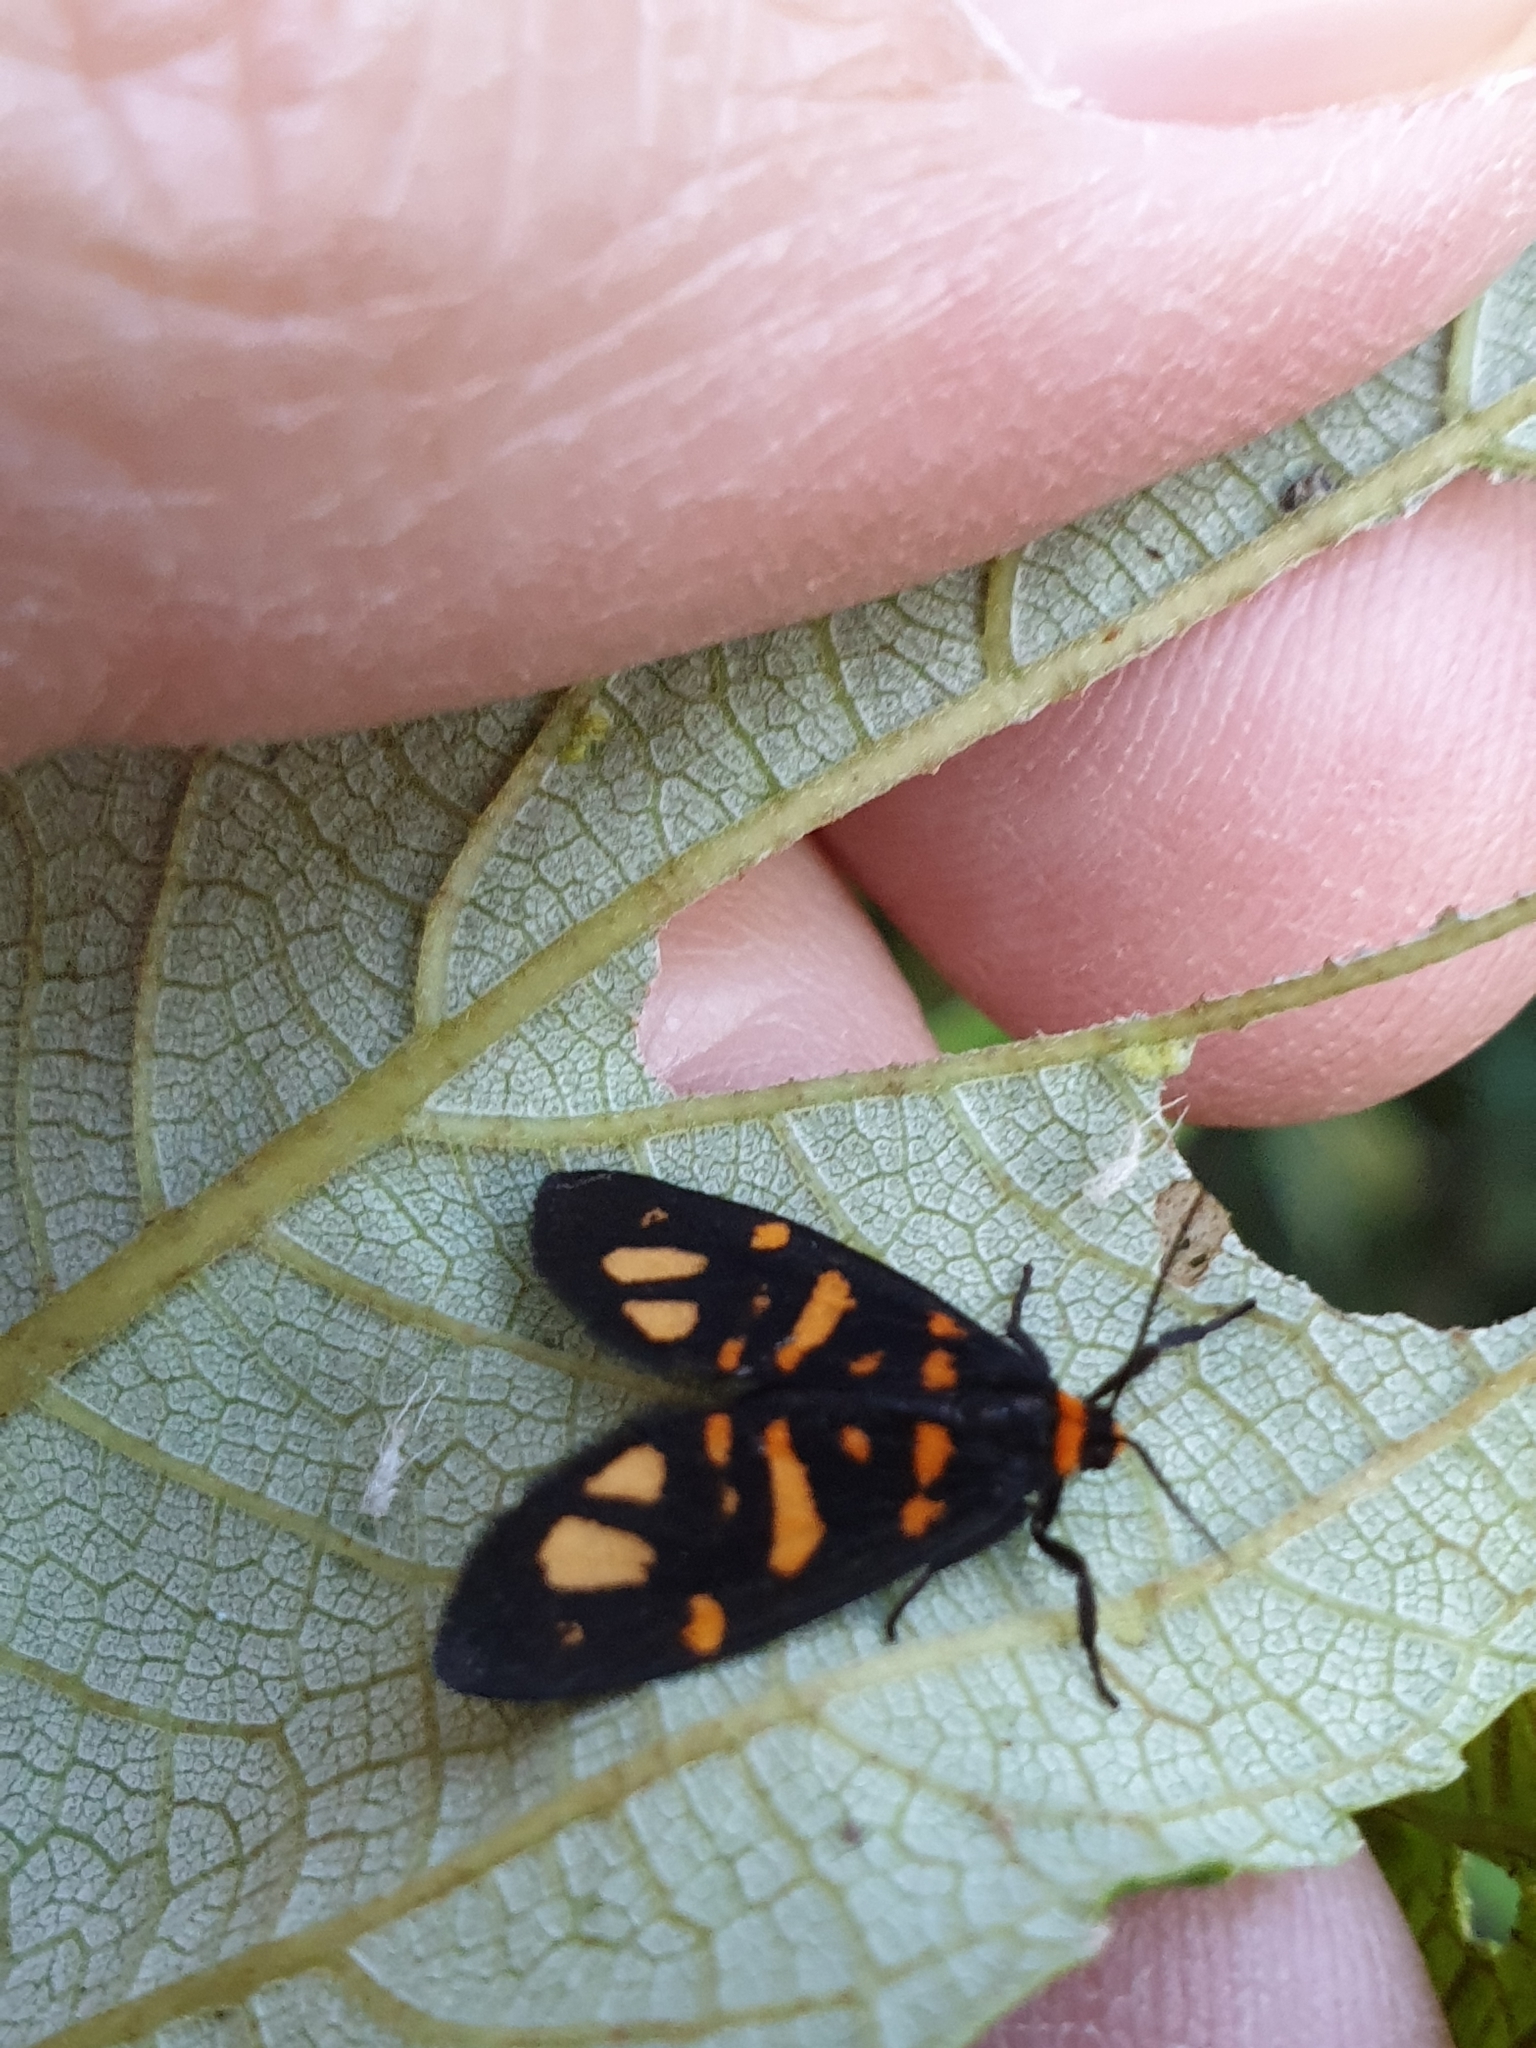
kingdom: Animalia
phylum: Arthropoda
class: Insecta
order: Lepidoptera
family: Erebidae
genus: Asura
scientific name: Asura zebrina
